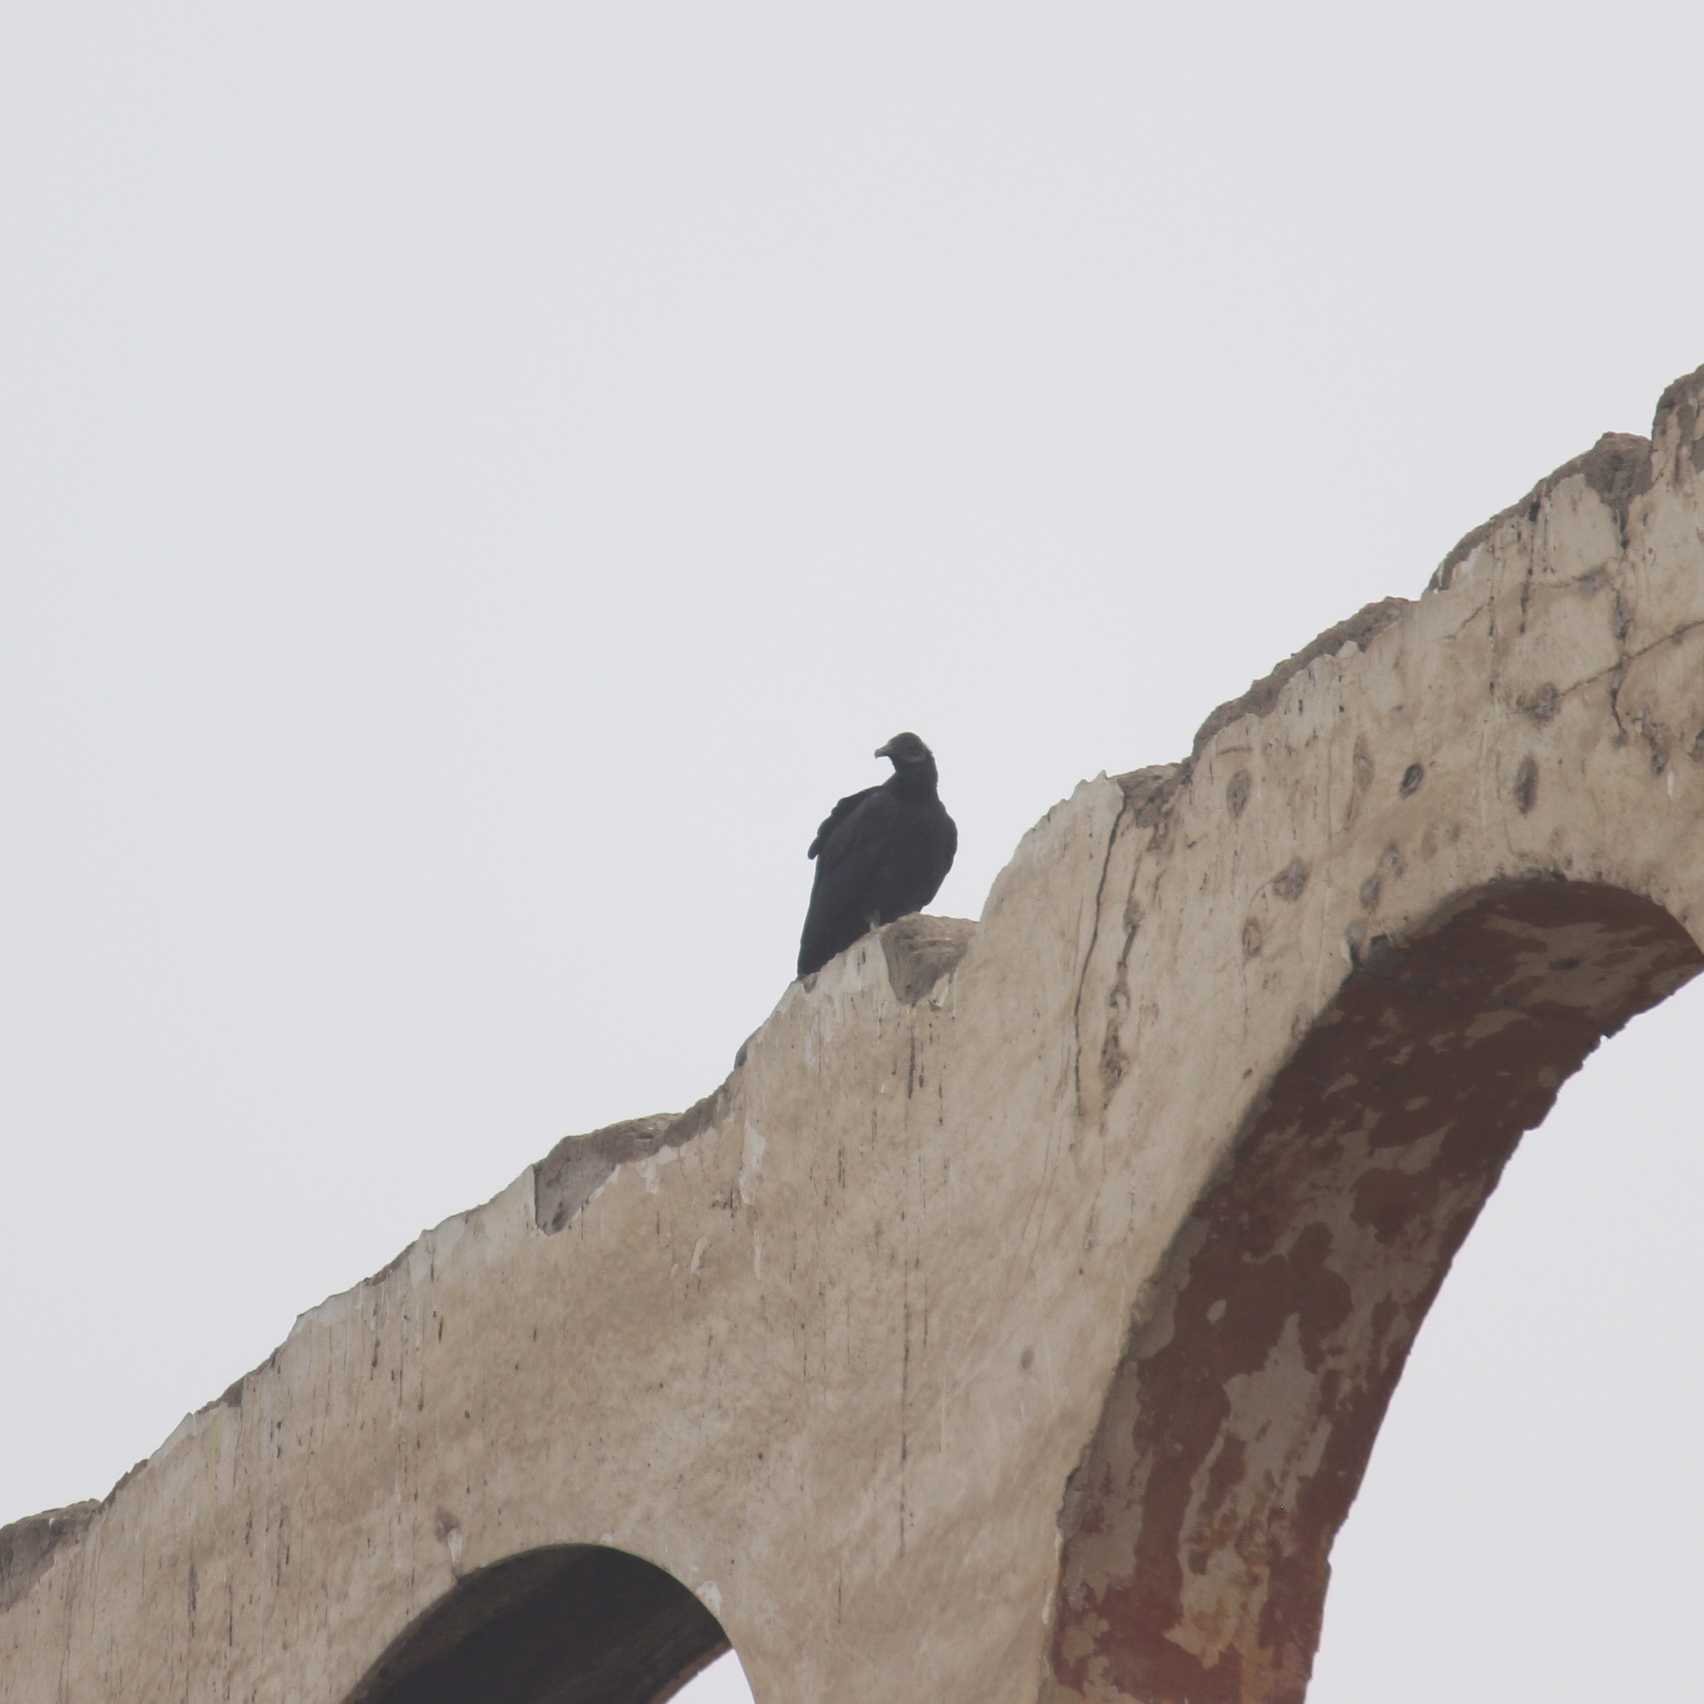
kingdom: Animalia
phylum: Chordata
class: Aves
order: Accipitriformes
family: Cathartidae
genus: Coragyps
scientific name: Coragyps atratus
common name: Black vulture
